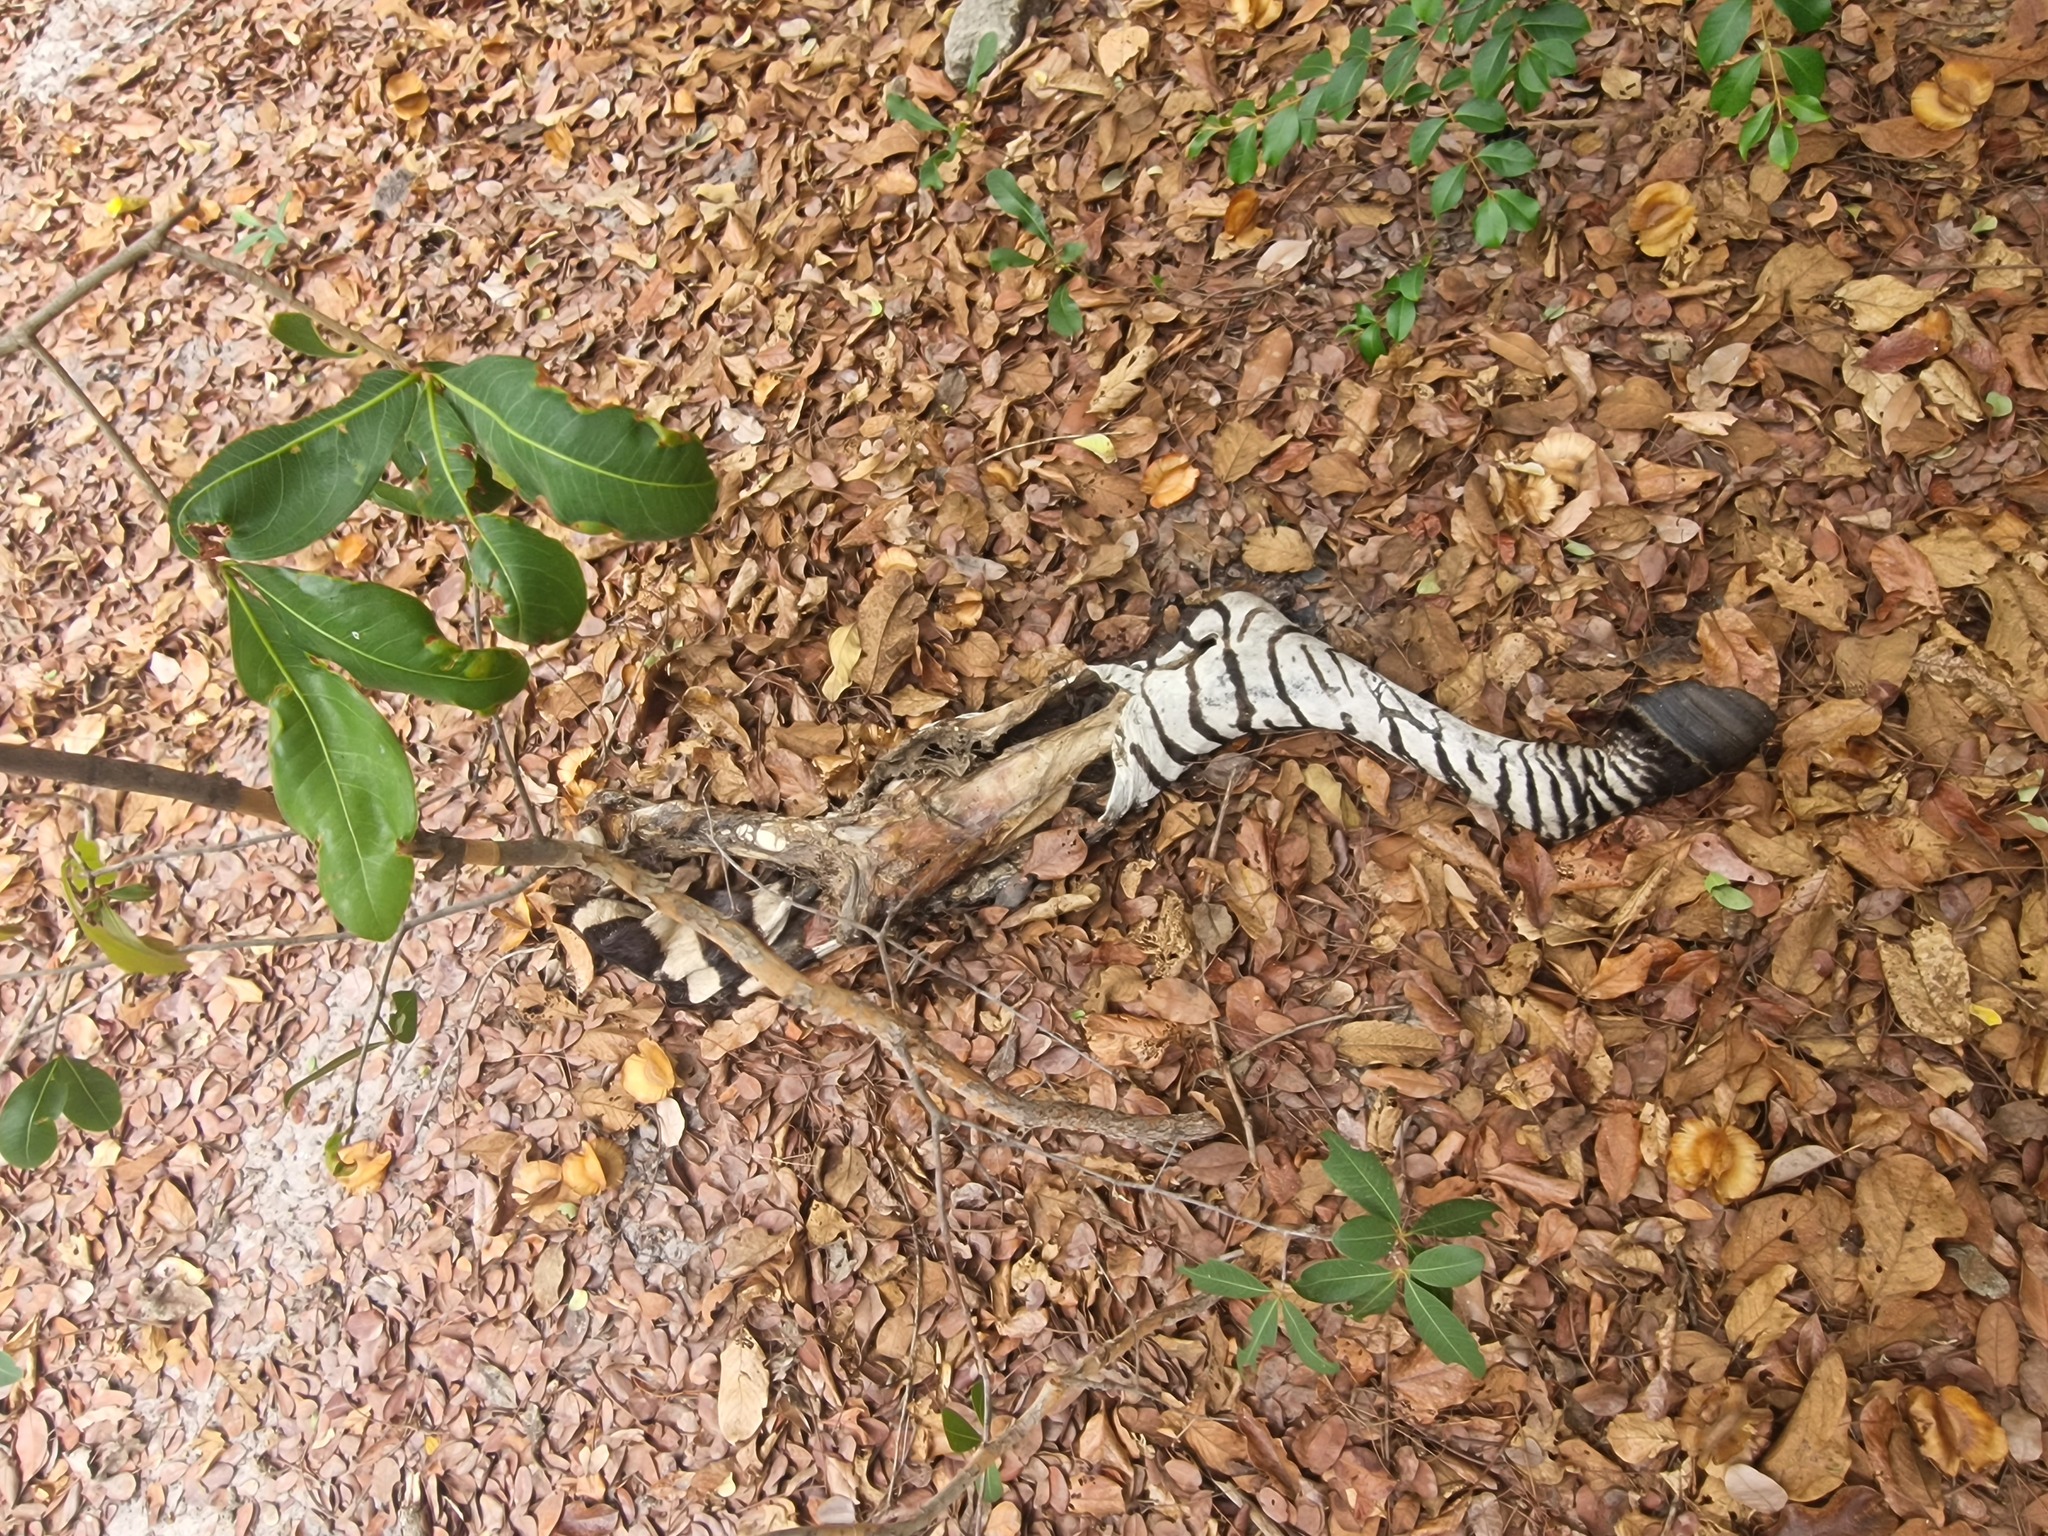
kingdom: Animalia
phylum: Chordata
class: Mammalia
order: Perissodactyla
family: Equidae
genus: Equus
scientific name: Equus quagga
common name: Plains zebra
